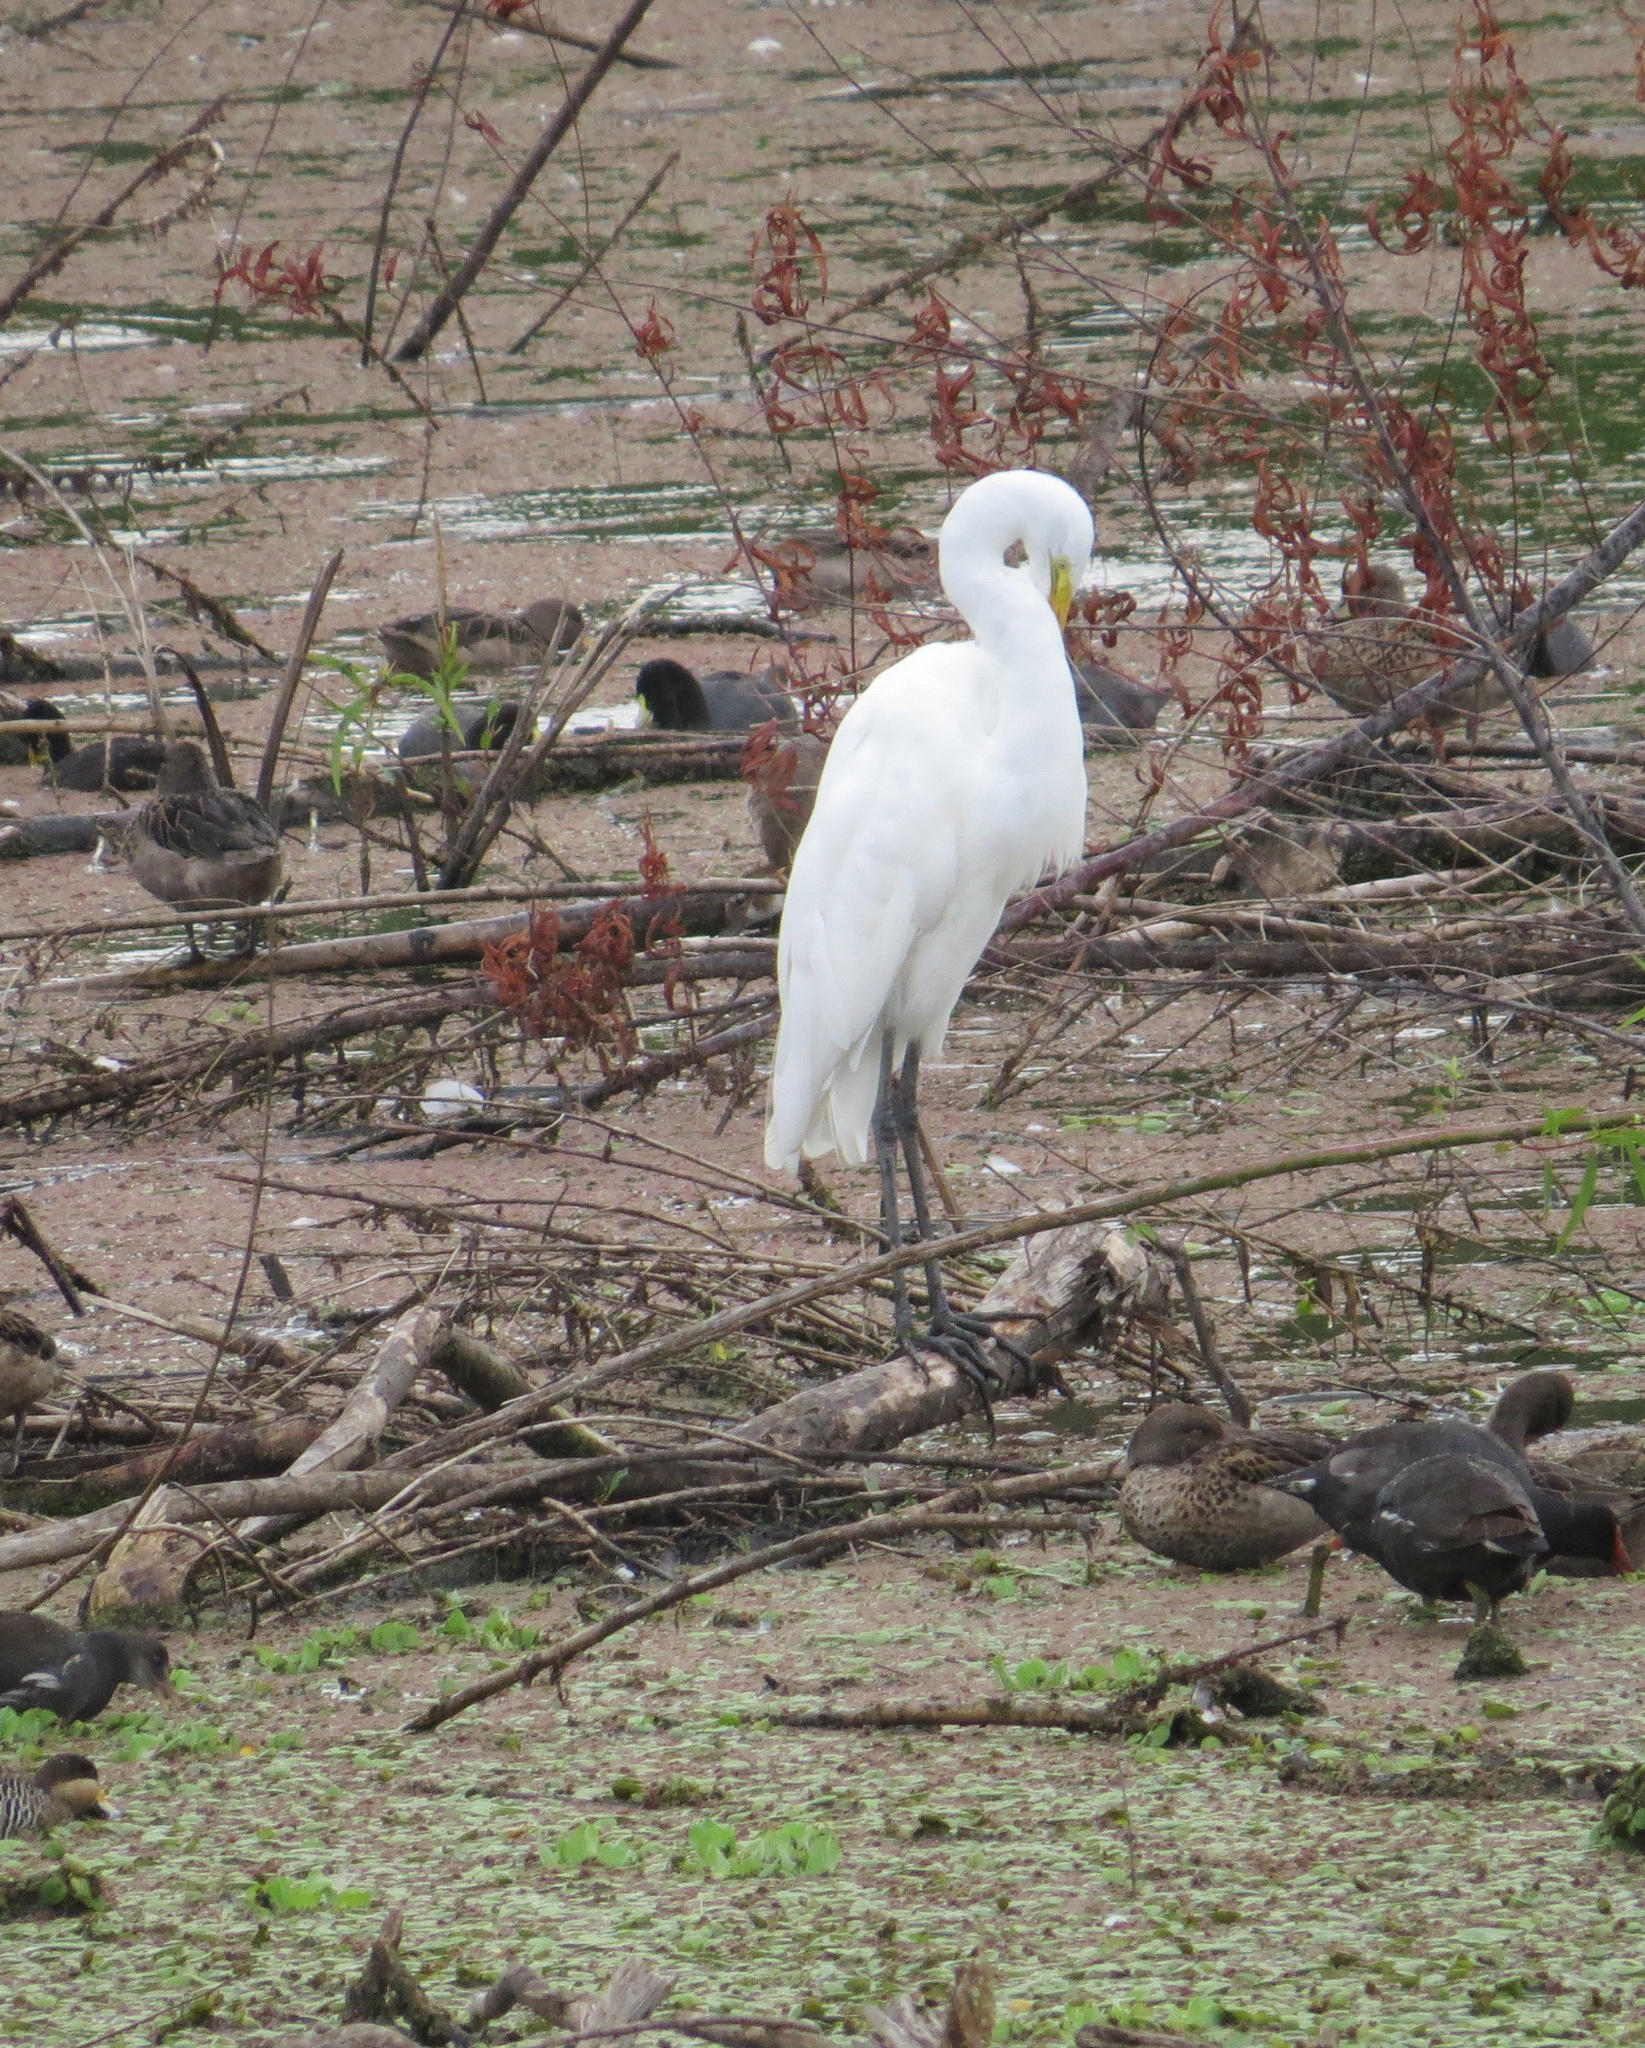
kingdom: Animalia
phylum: Chordata
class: Aves
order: Pelecaniformes
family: Ardeidae
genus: Ardea
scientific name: Ardea alba
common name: Great egret
